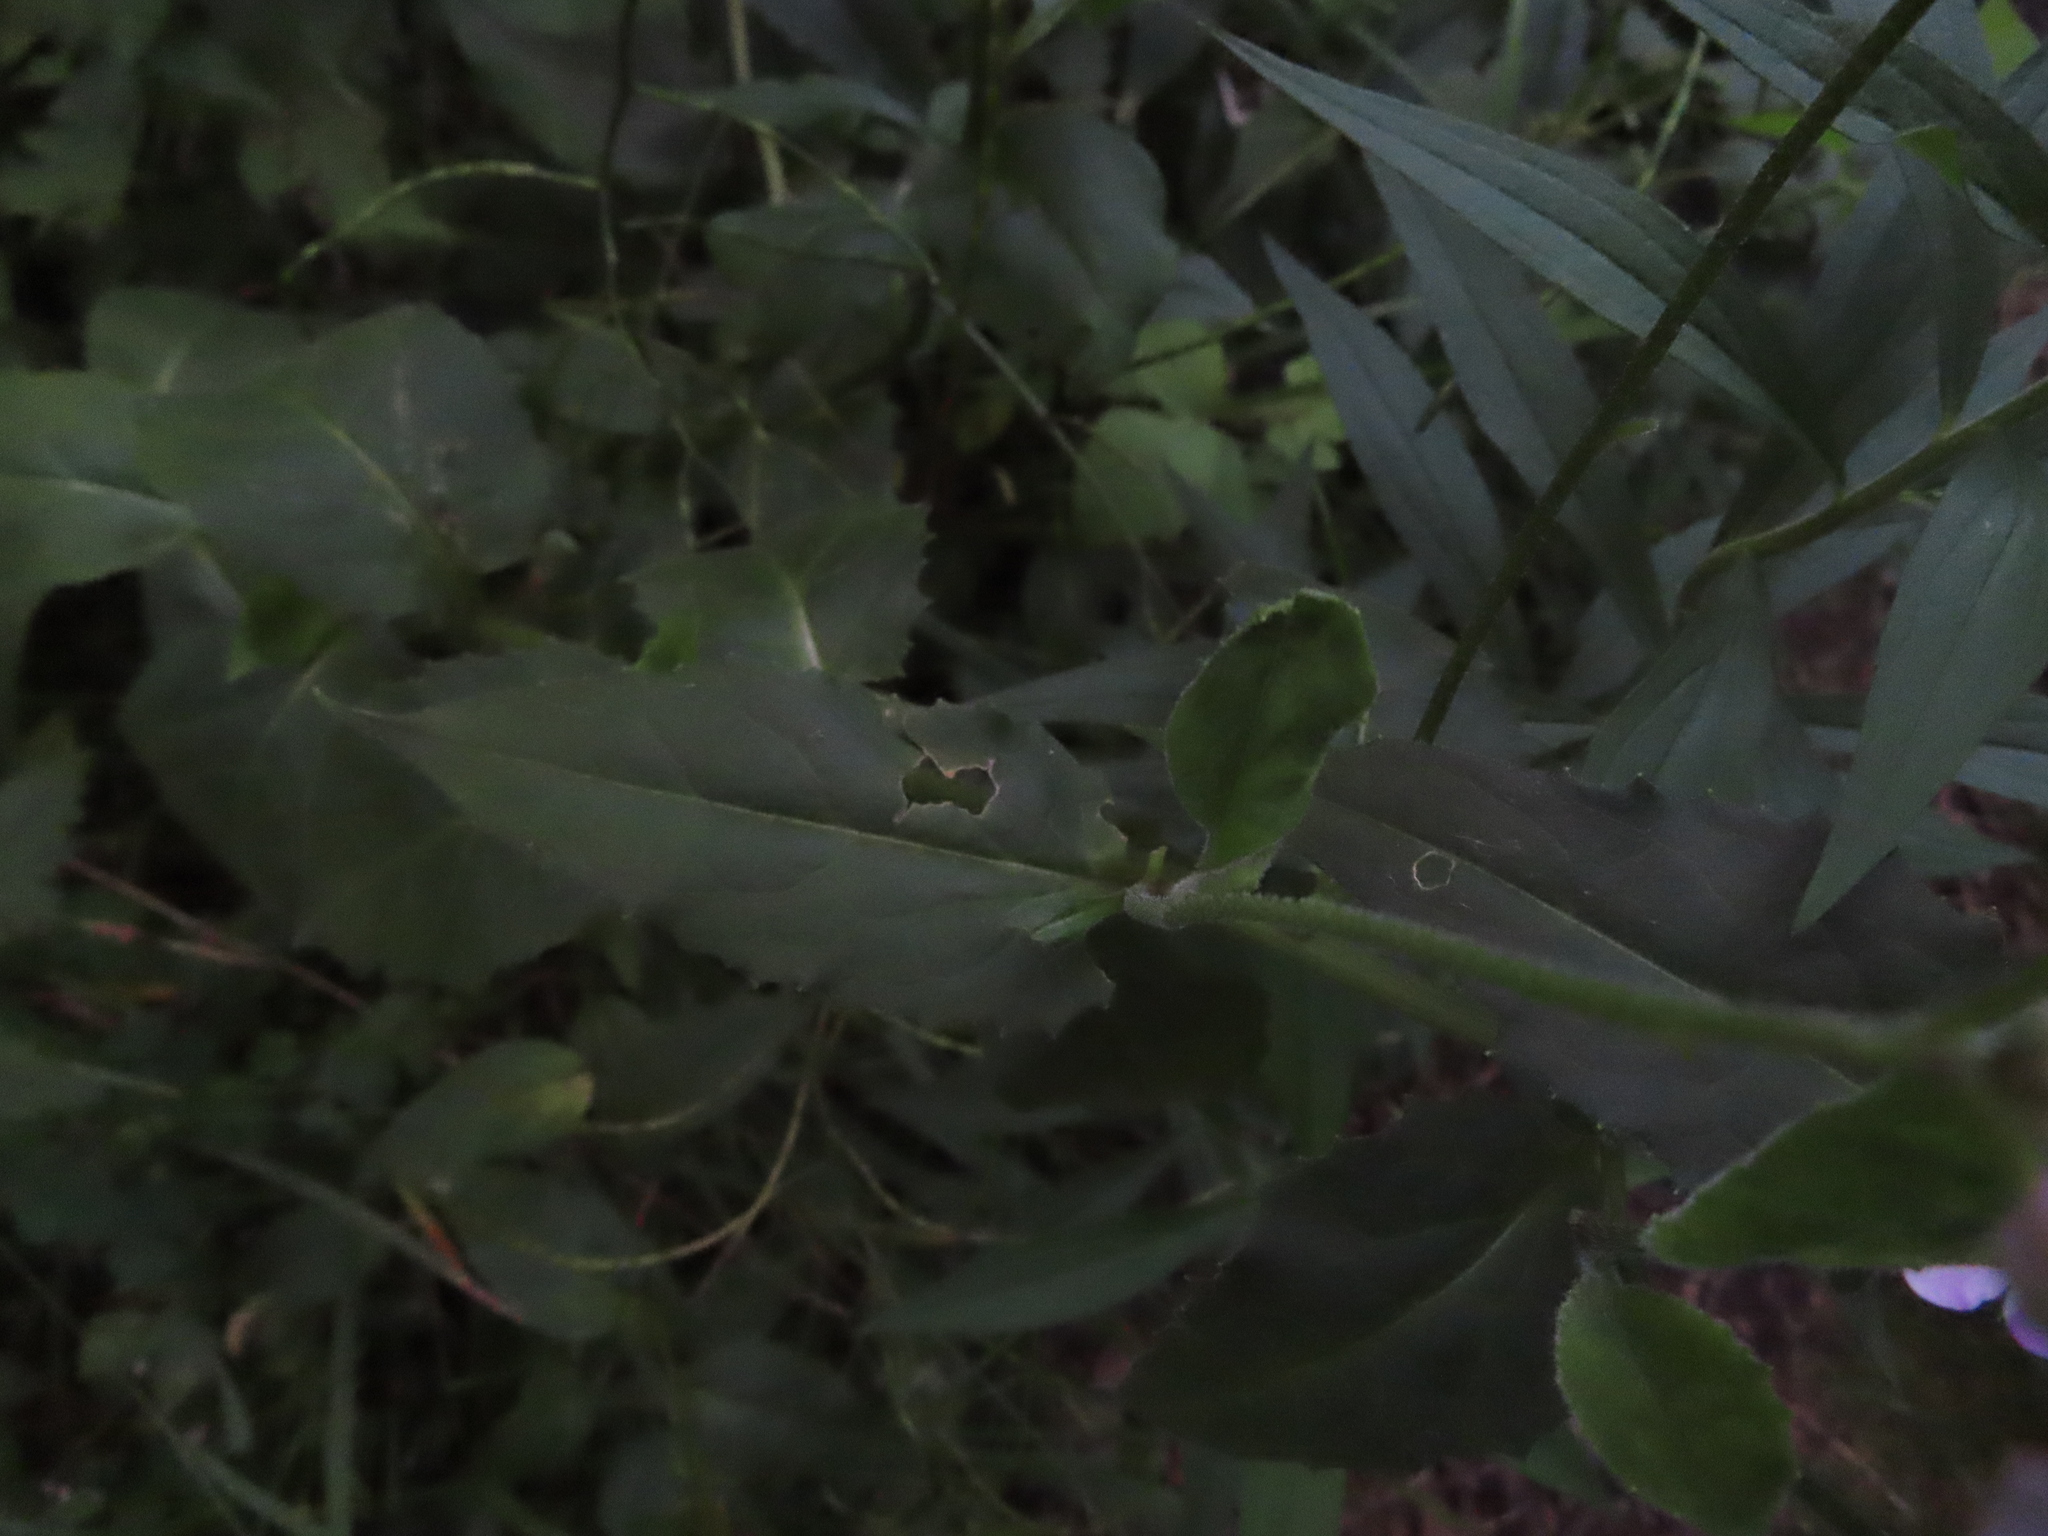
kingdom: Plantae
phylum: Tracheophyta
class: Magnoliopsida
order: Brassicales
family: Brassicaceae
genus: Hesperis
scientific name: Hesperis matronalis
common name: Dame's-violet
